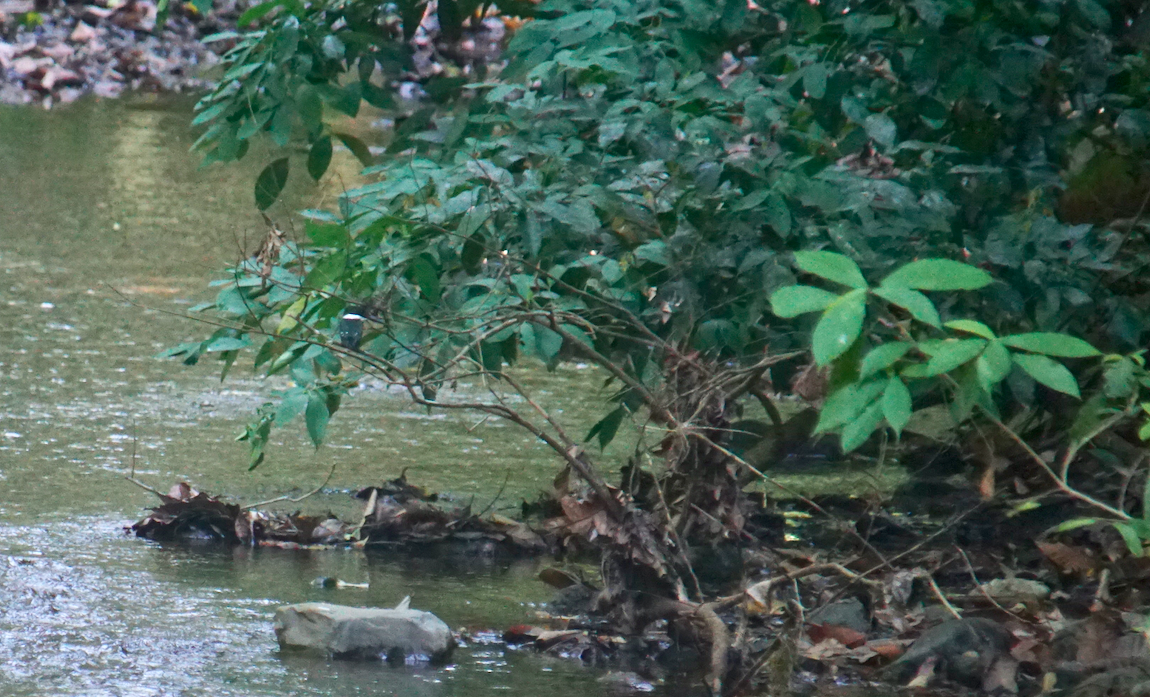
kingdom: Animalia
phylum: Chordata
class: Aves
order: Coraciiformes
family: Alcedinidae
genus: Chloroceryle
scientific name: Chloroceryle americana
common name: Green kingfisher
